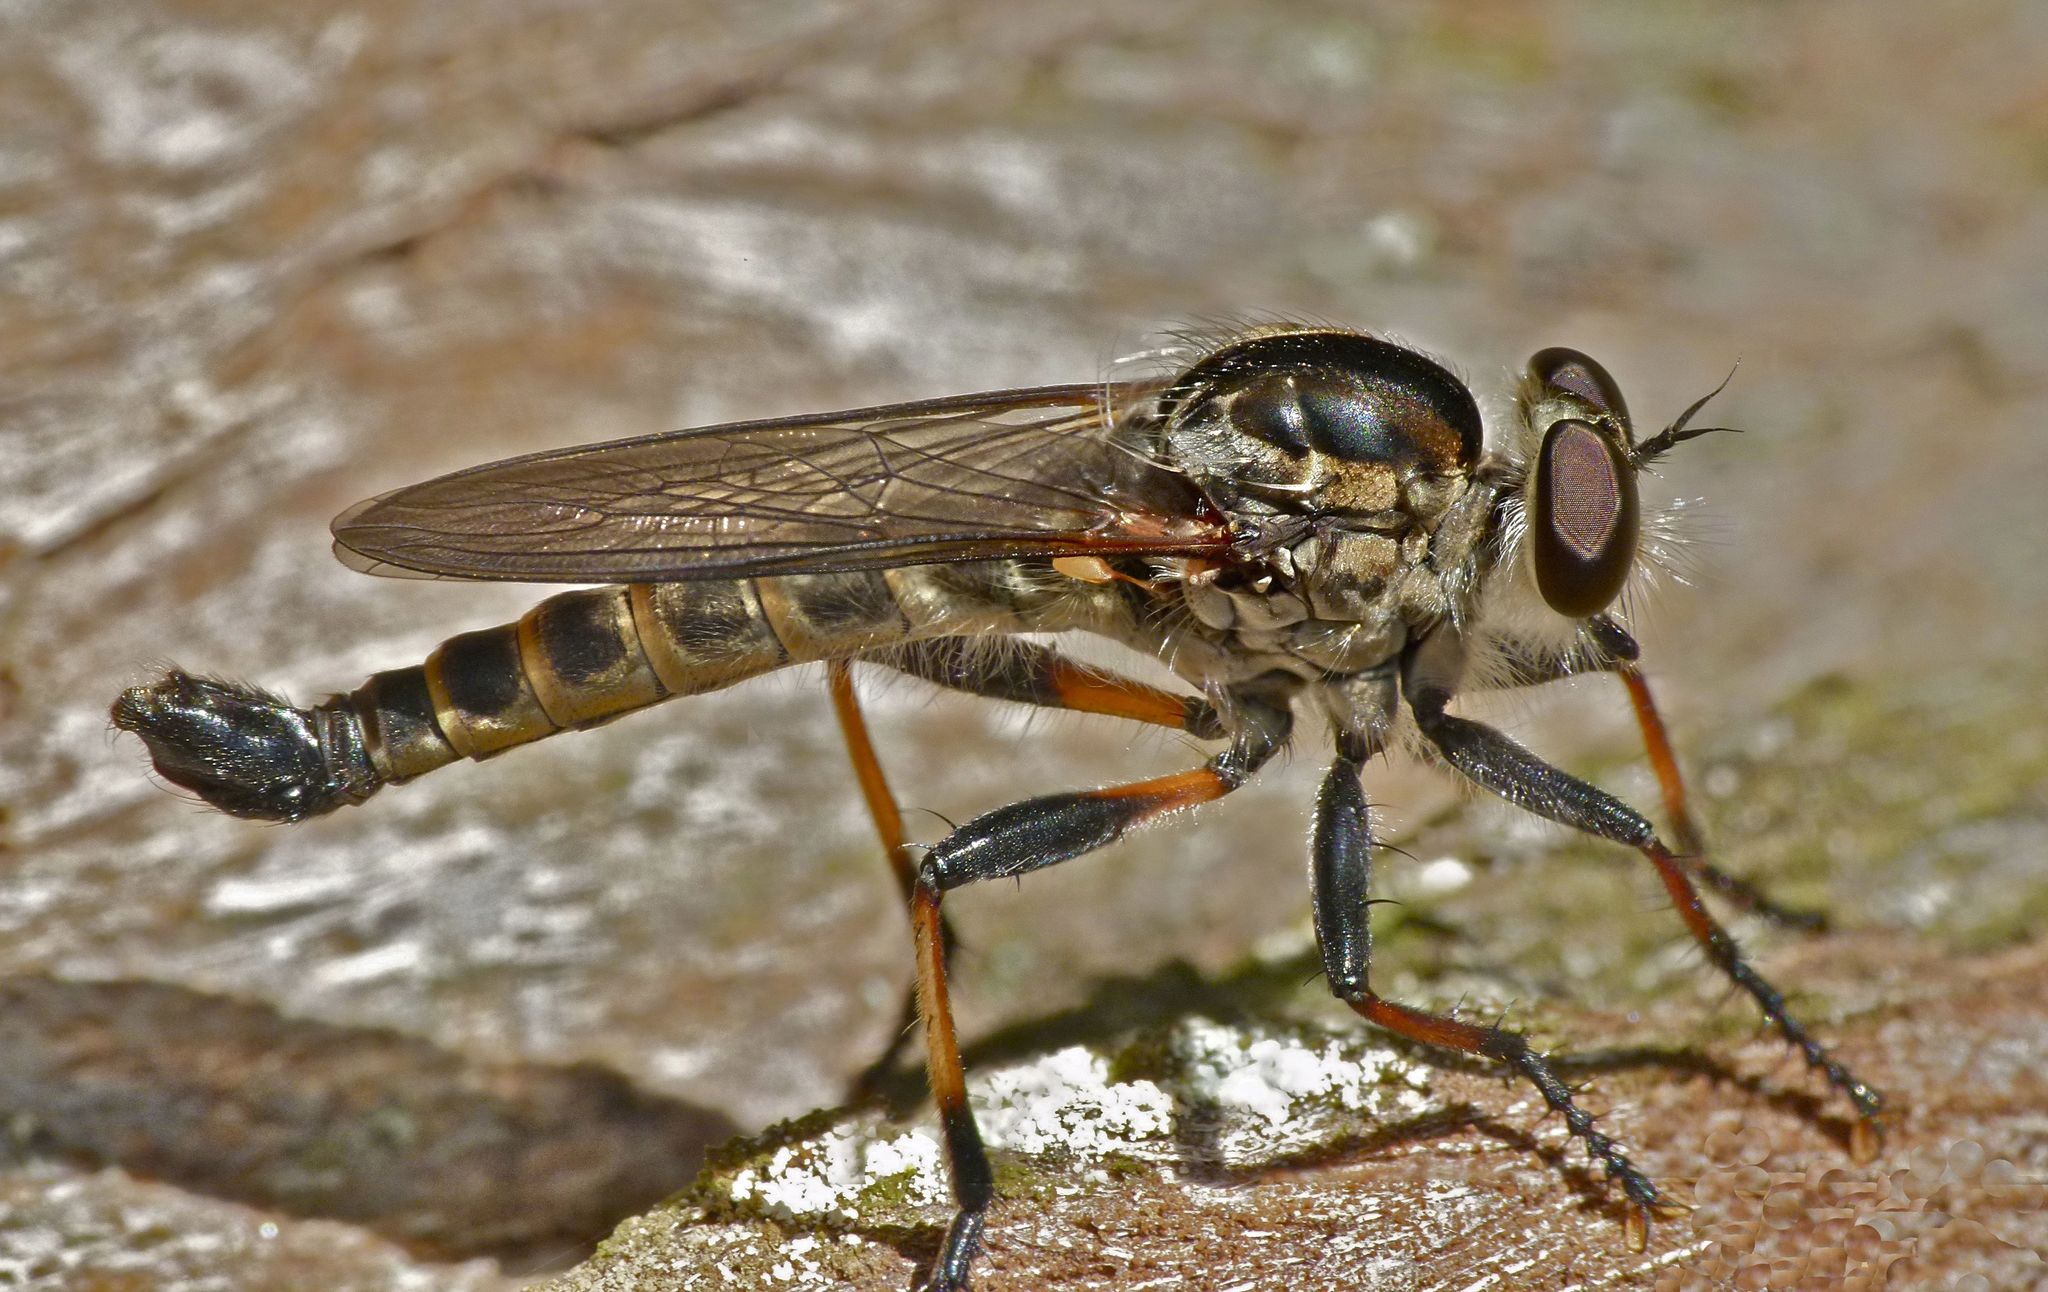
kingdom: Animalia
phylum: Arthropoda
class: Insecta
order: Diptera
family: Asilidae
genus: Cerdistus
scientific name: Cerdistus fuscipennis
